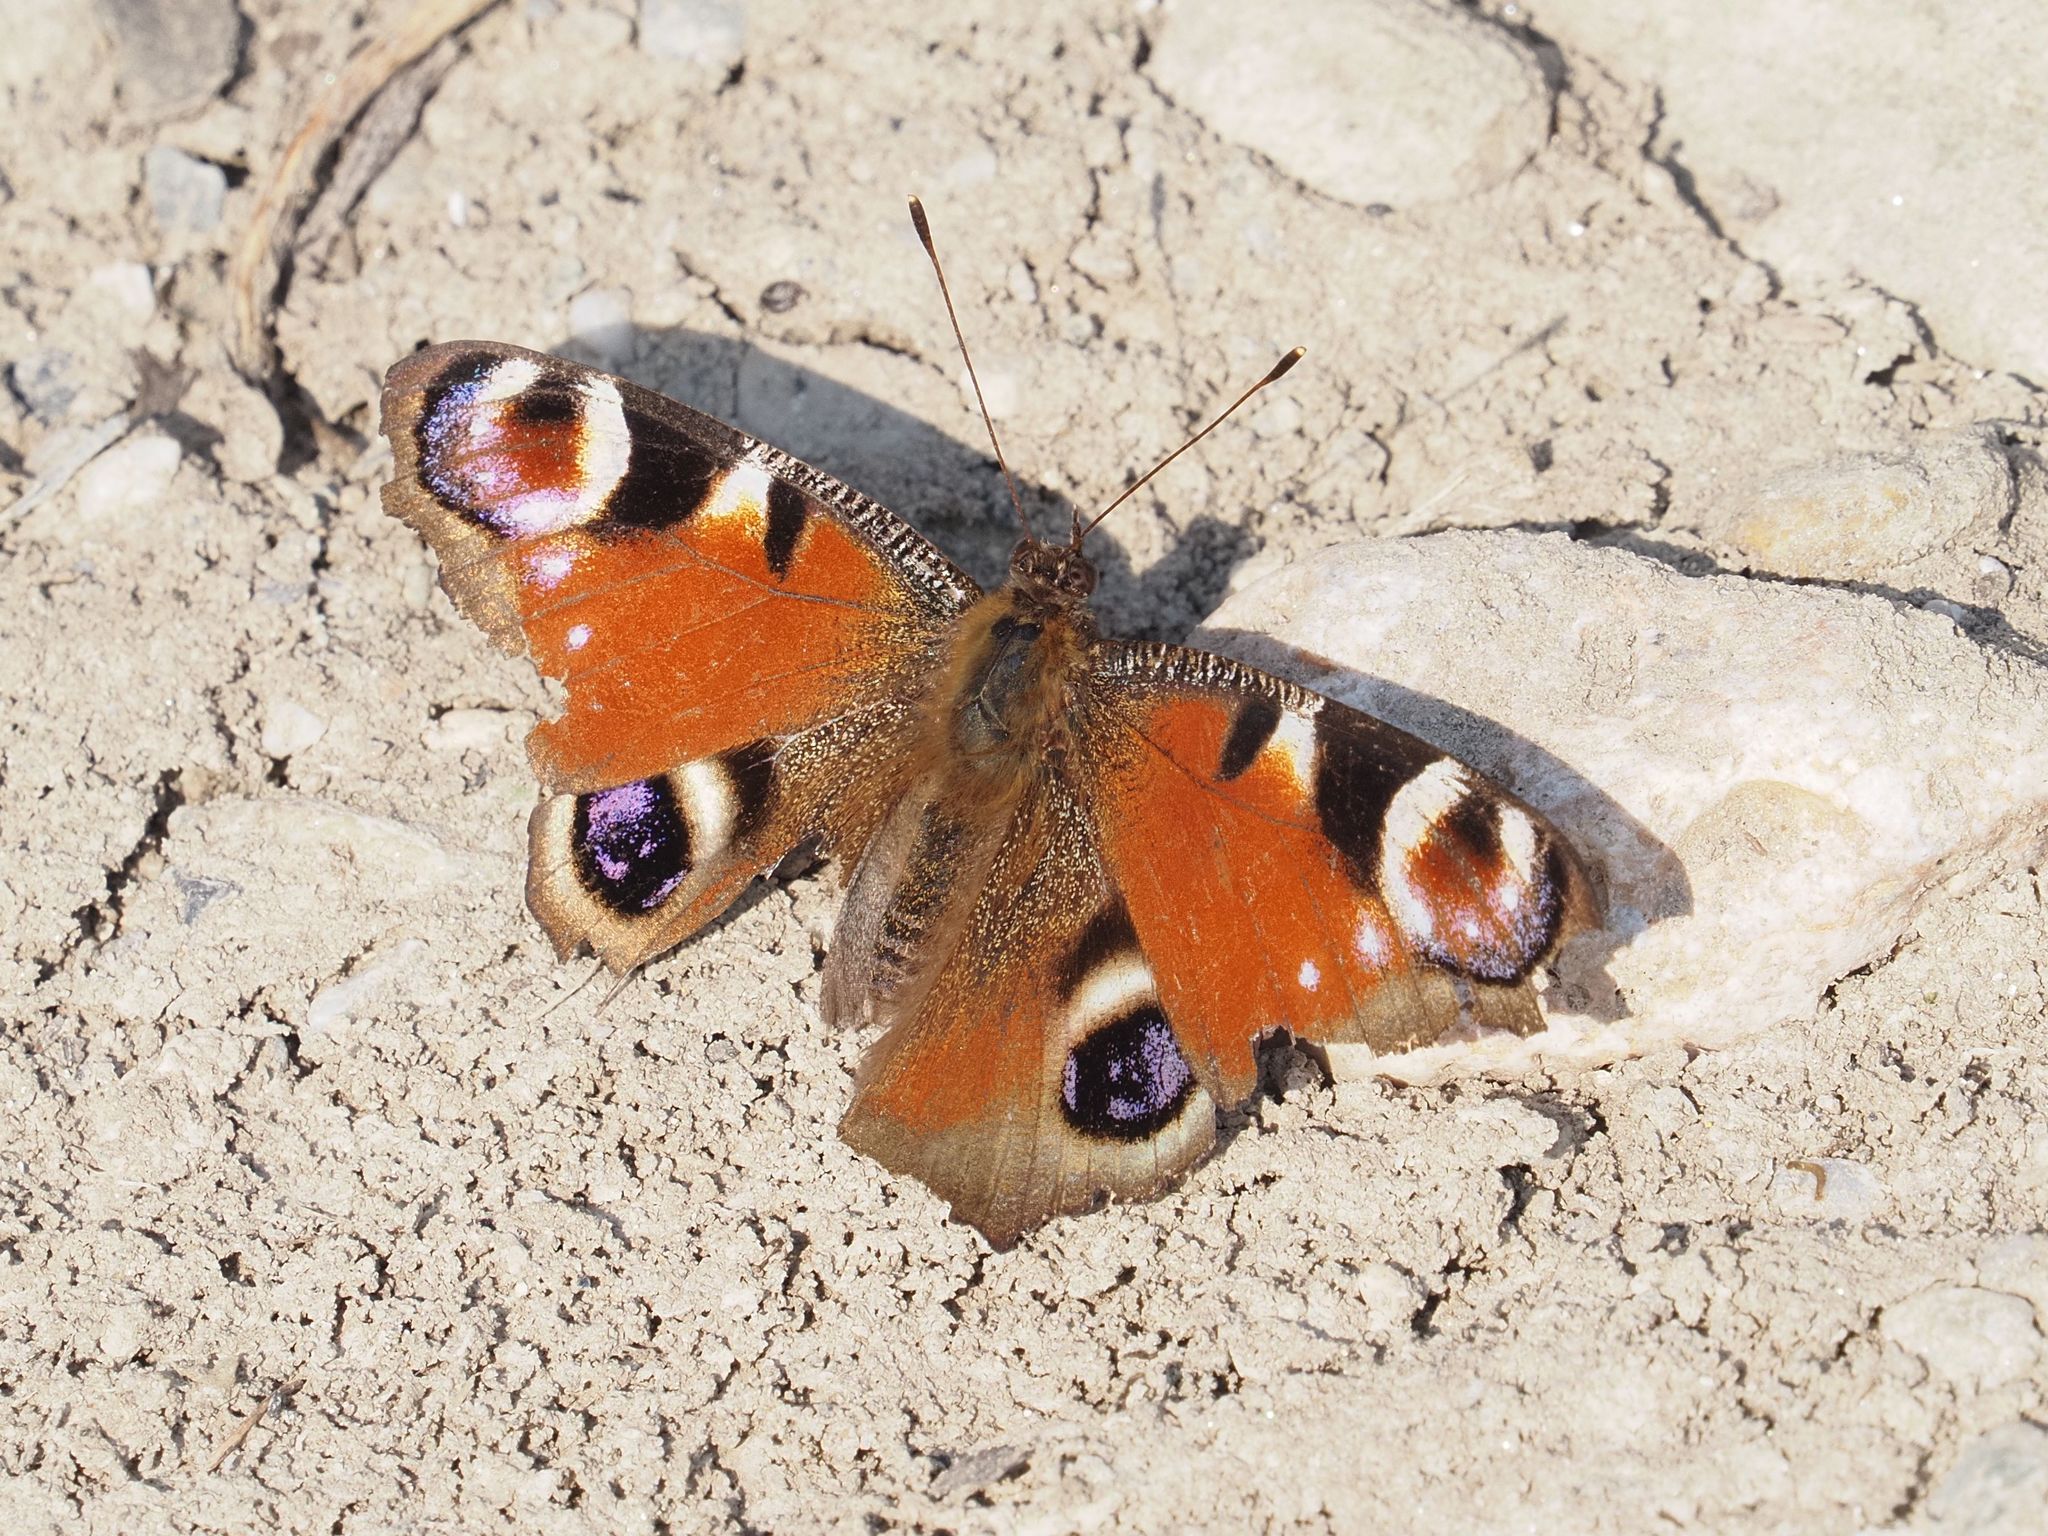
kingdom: Animalia
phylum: Arthropoda
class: Insecta
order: Lepidoptera
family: Nymphalidae
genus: Aglais
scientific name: Aglais io
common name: Peacock
